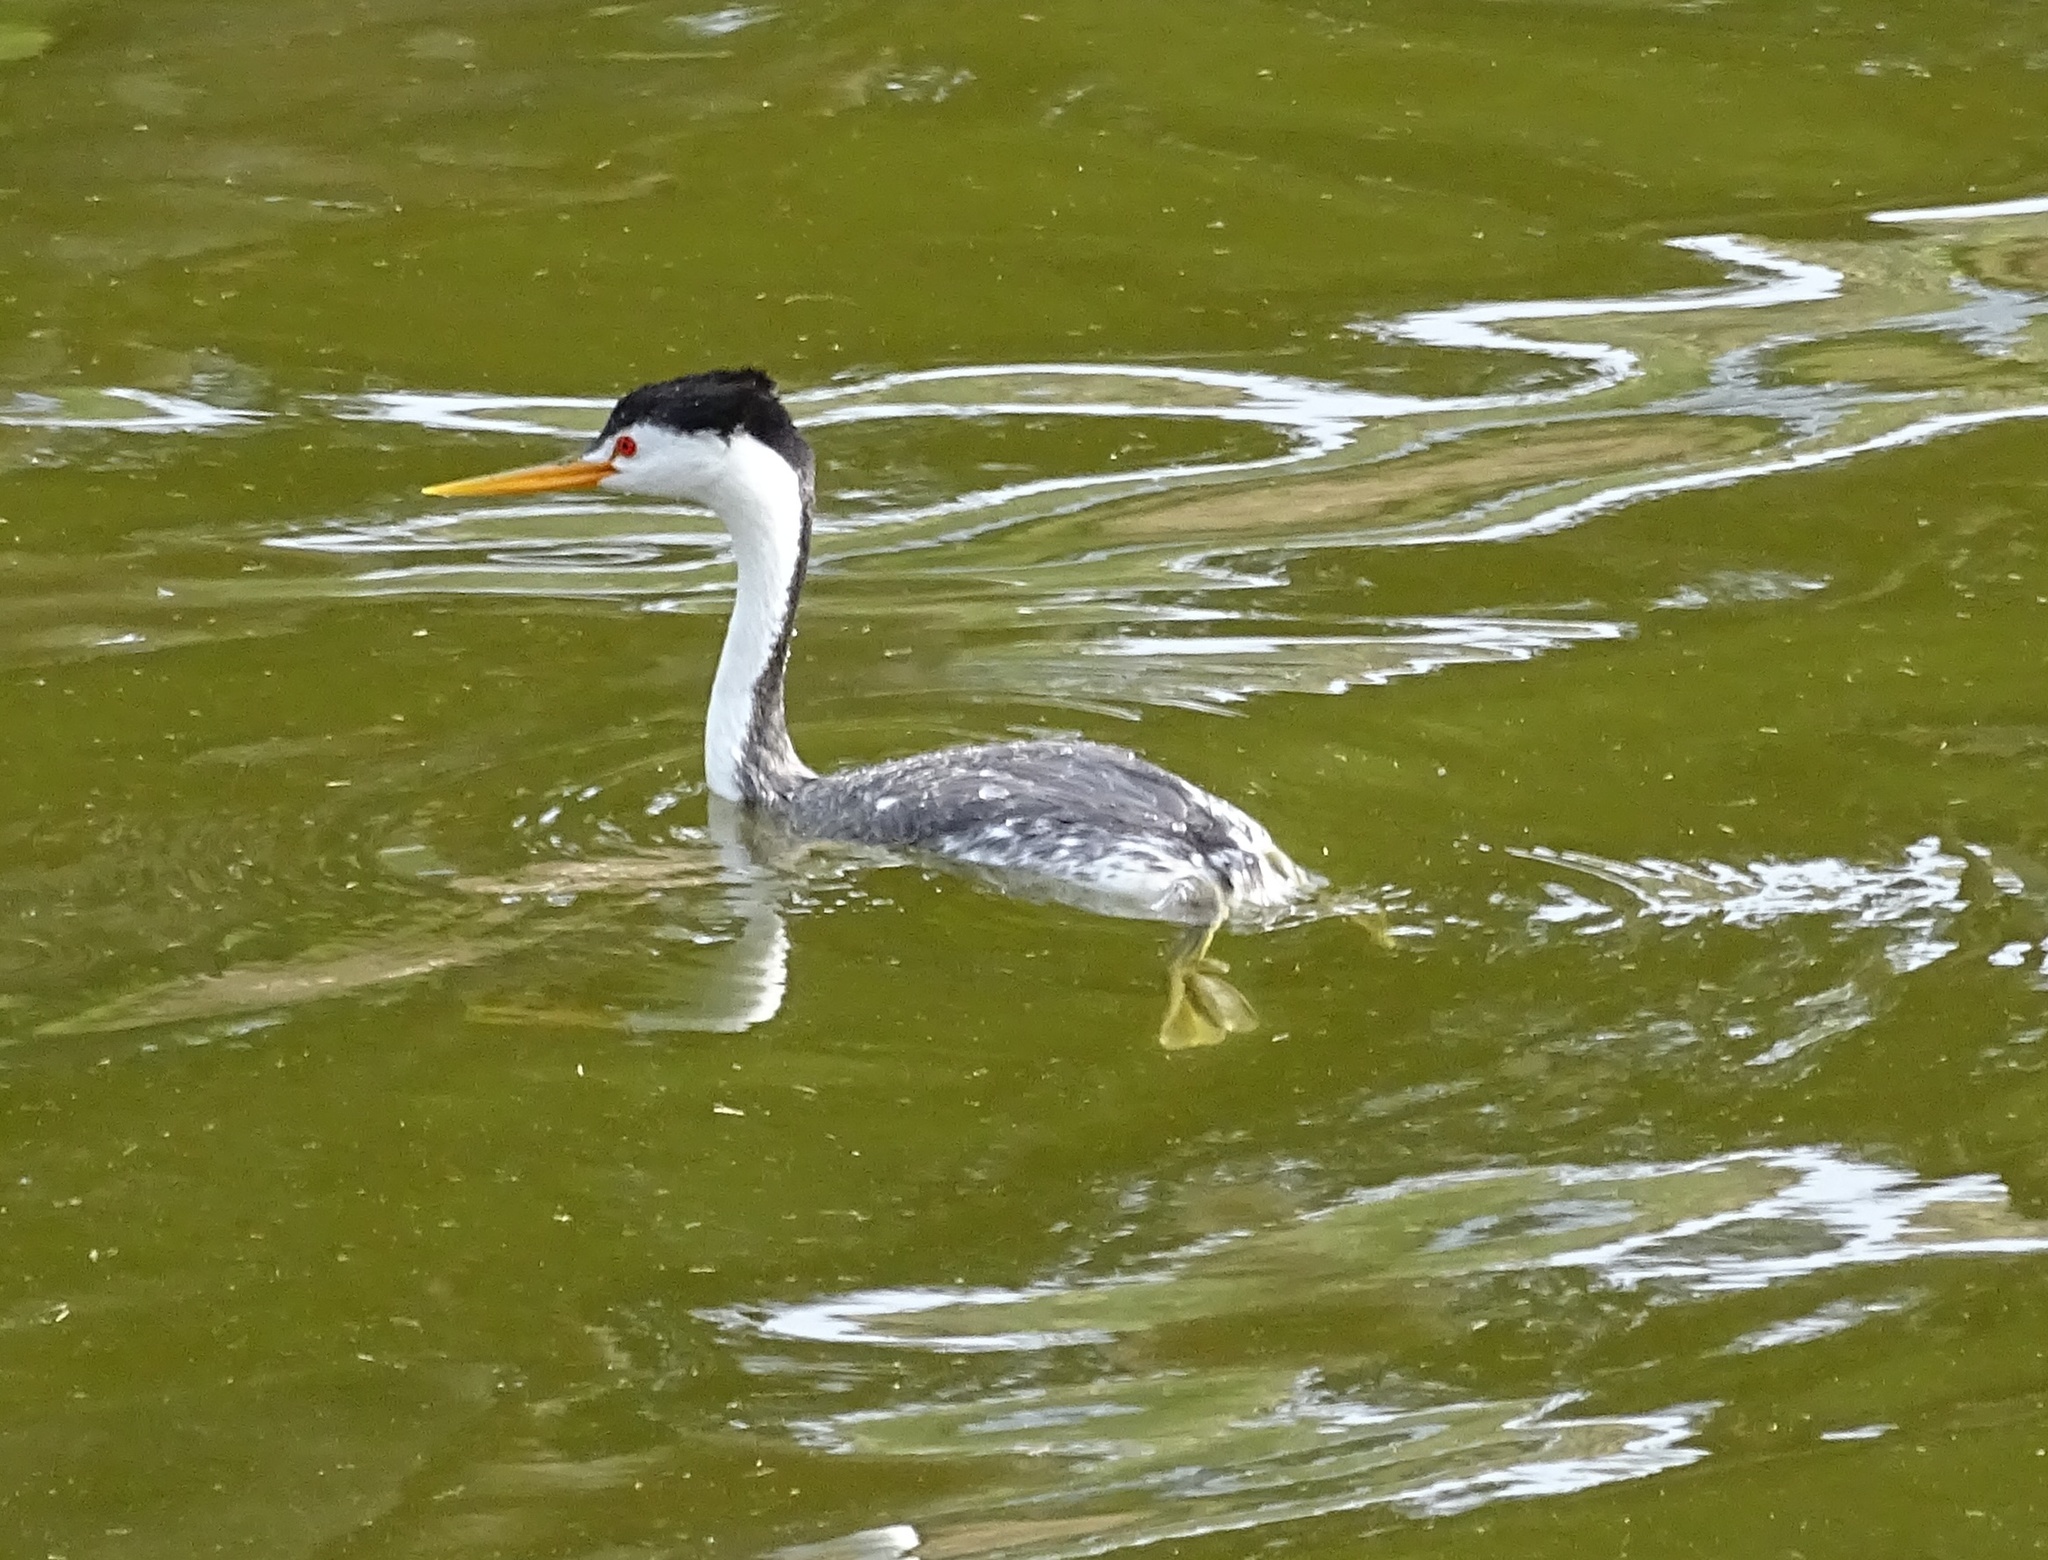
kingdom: Animalia
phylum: Chordata
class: Aves
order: Podicipediformes
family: Podicipedidae
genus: Aechmophorus
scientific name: Aechmophorus clarkii
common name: Clark's grebe
